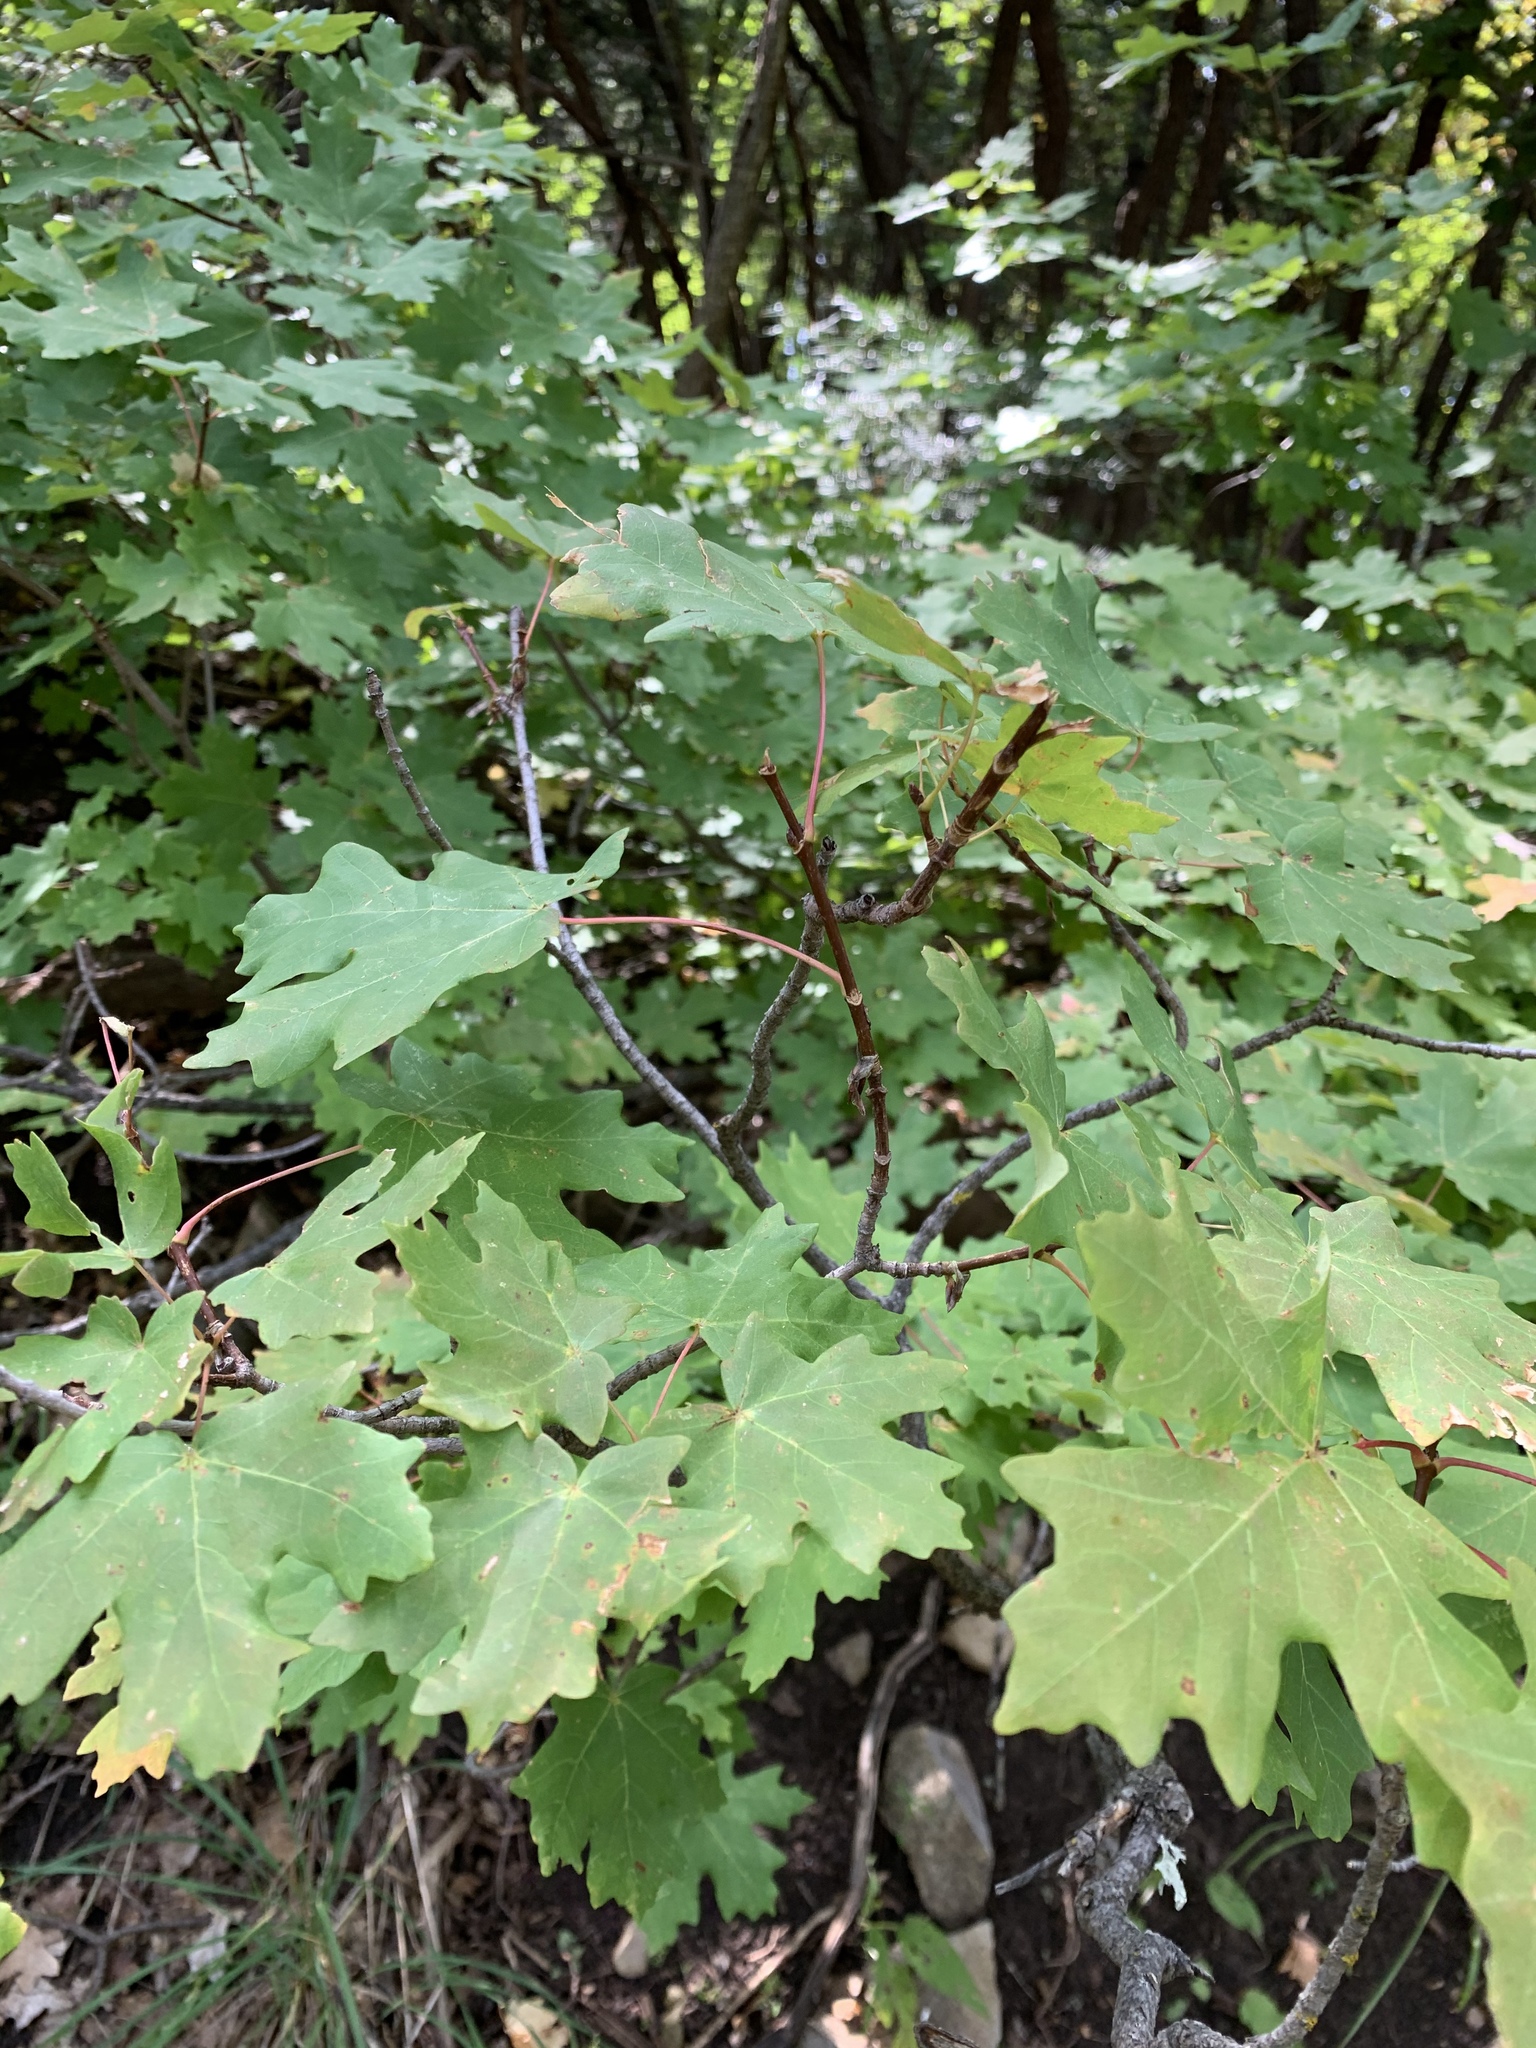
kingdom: Plantae
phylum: Tracheophyta
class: Magnoliopsida
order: Sapindales
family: Sapindaceae
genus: Acer
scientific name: Acer grandidentatum
